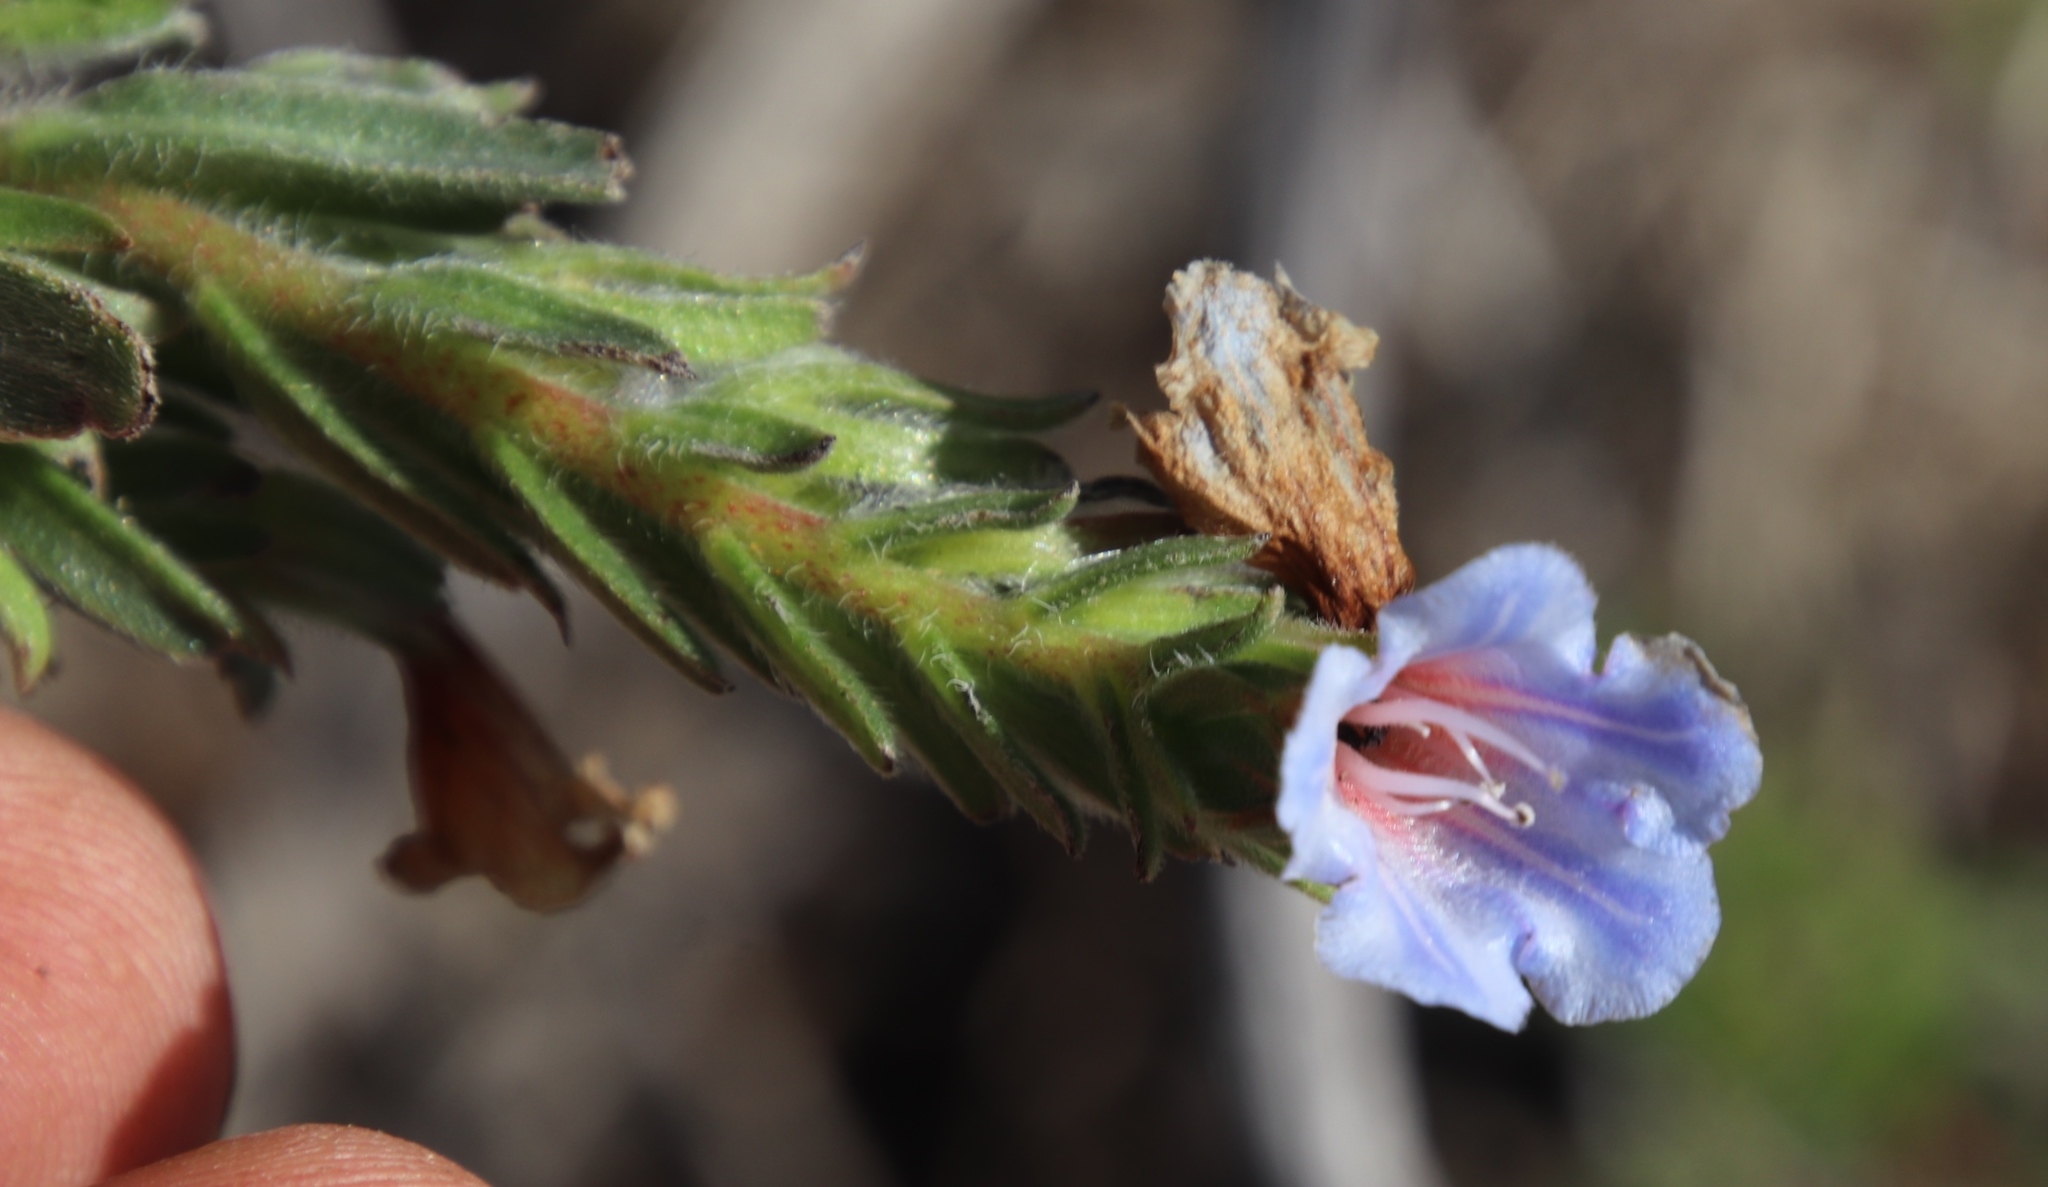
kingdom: Plantae
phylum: Tracheophyta
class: Magnoliopsida
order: Boraginales
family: Boraginaceae
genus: Lobostemon
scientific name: Lobostemon fruticosus
